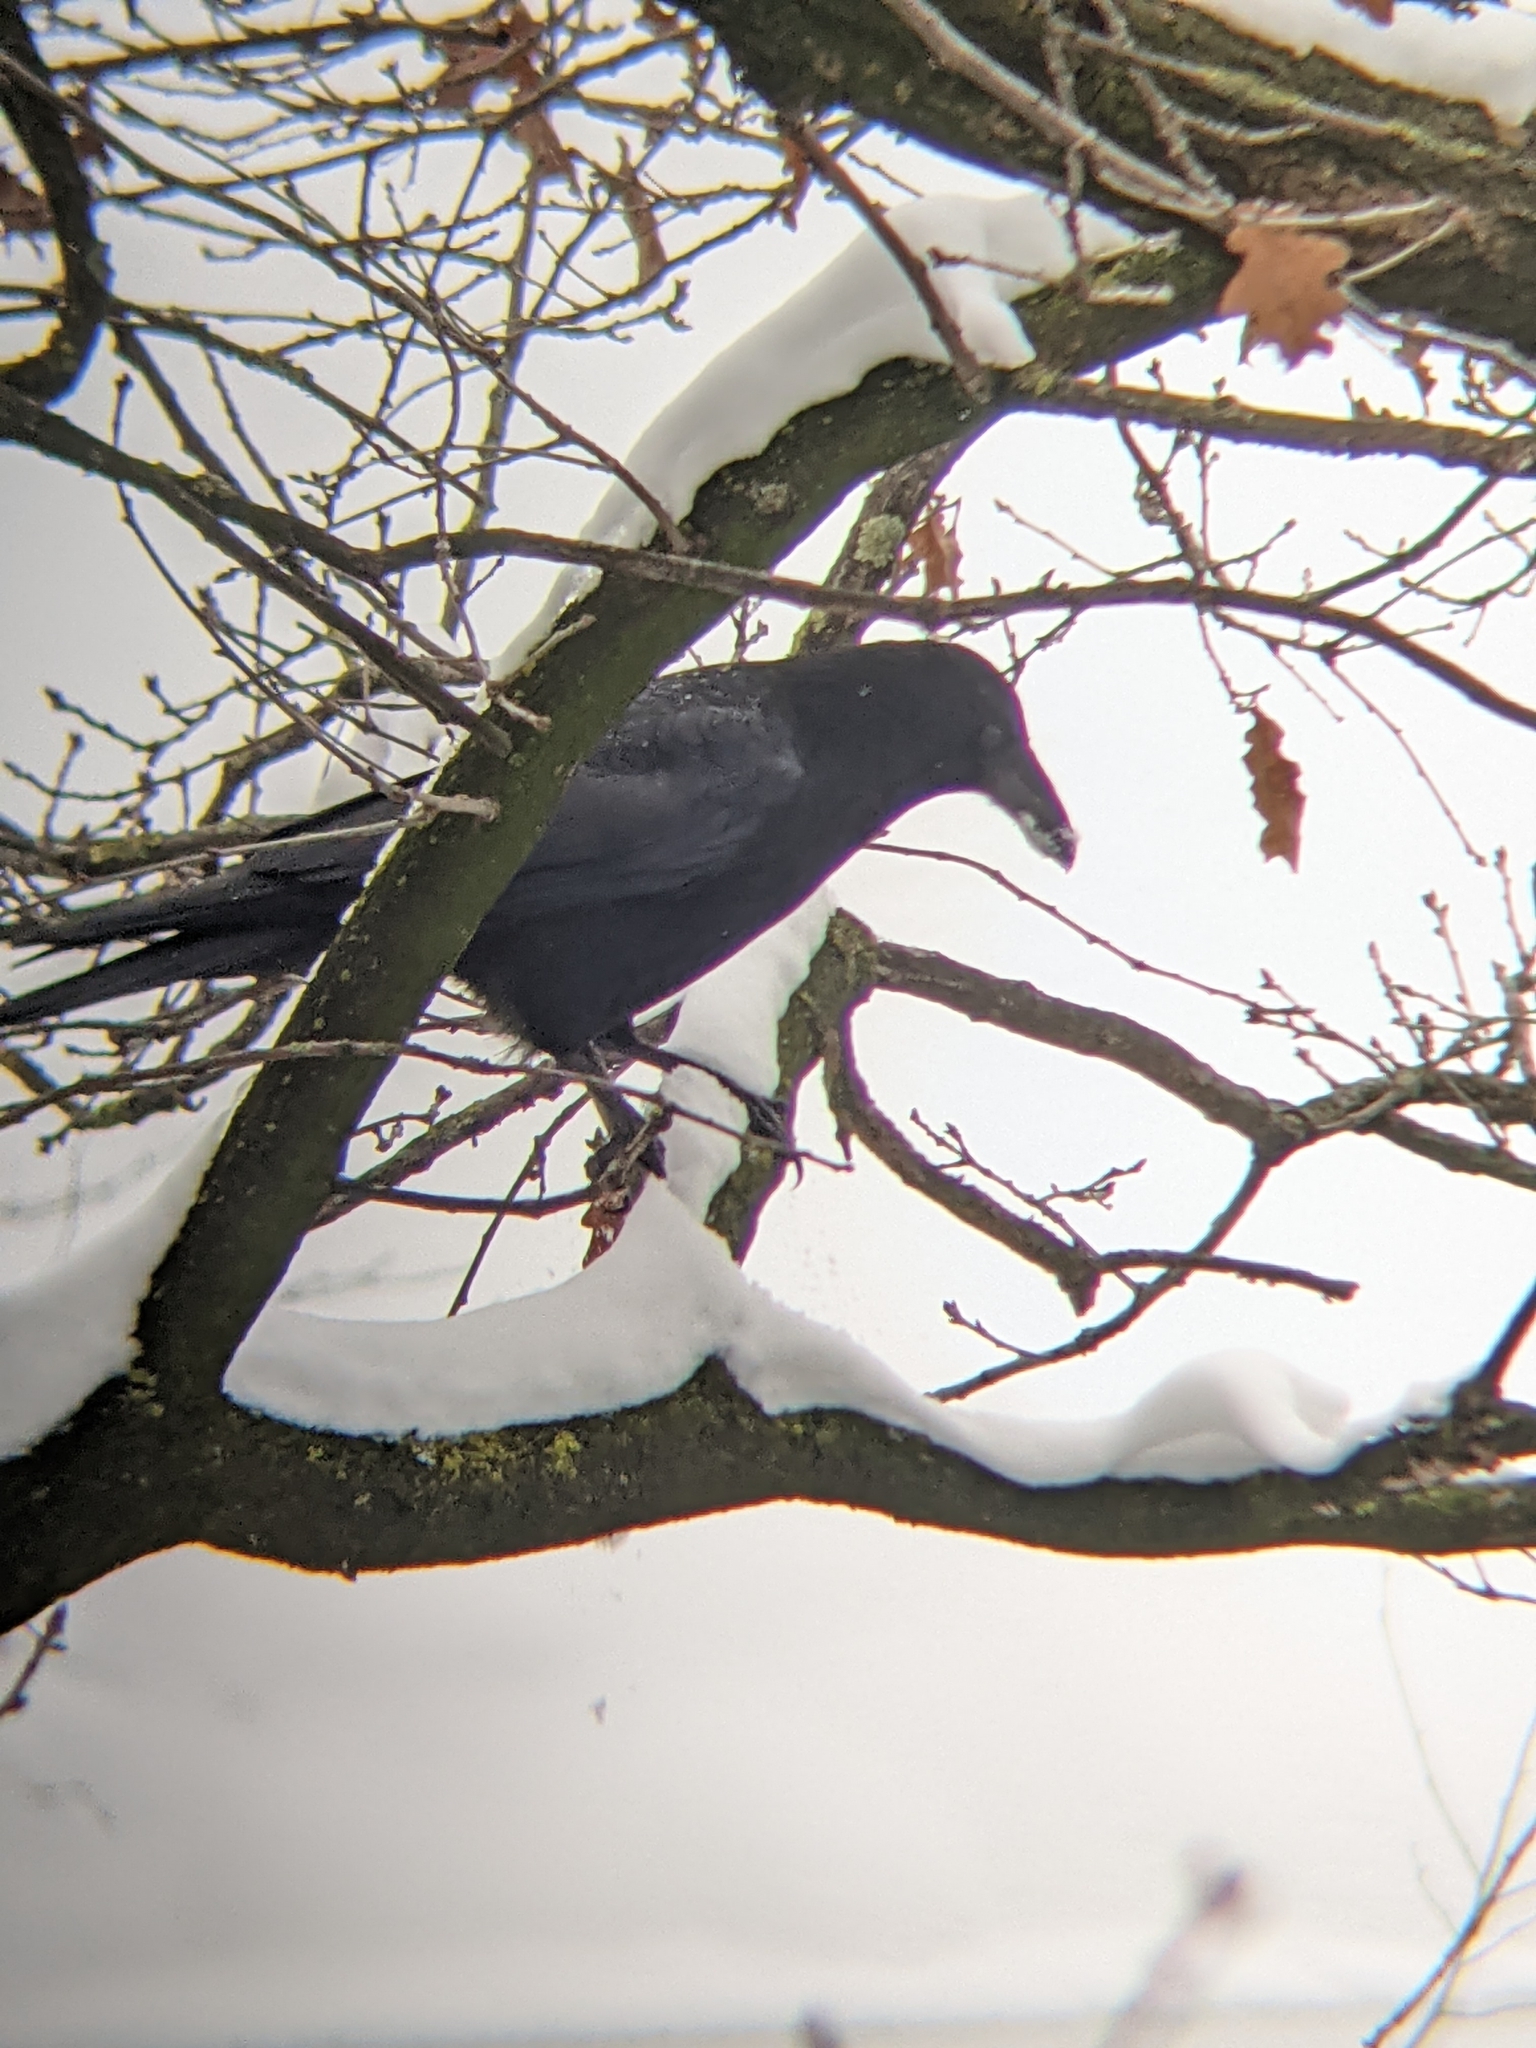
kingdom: Animalia
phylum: Chordata
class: Aves
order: Passeriformes
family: Corvidae
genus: Corvus
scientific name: Corvus corone
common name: Carrion crow
